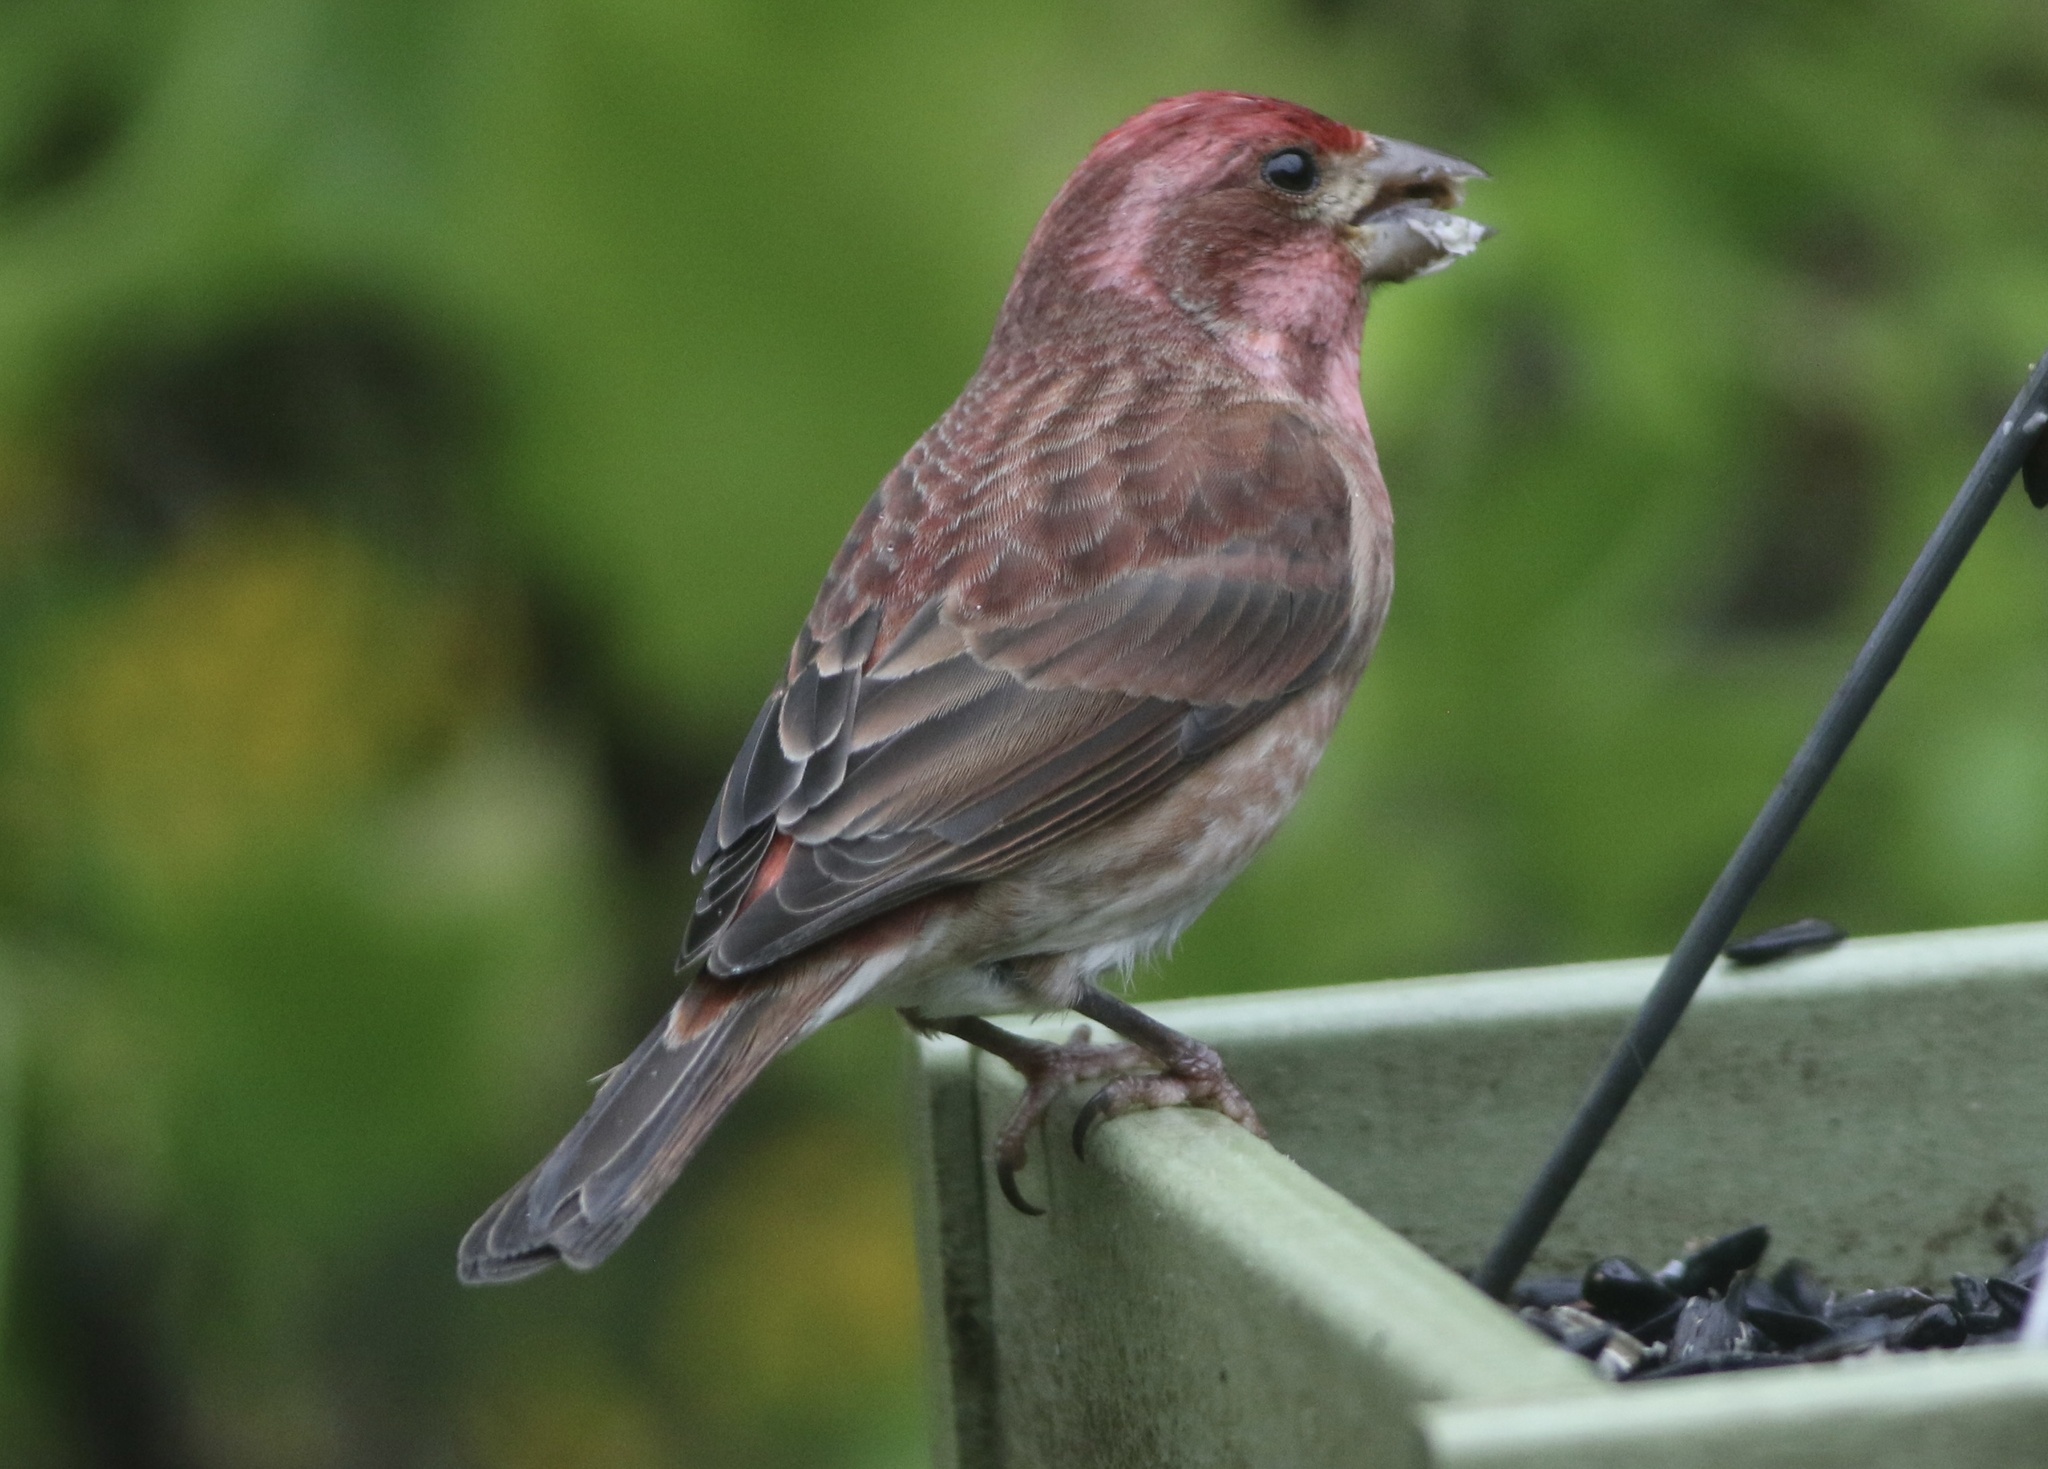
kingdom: Animalia
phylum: Chordata
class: Aves
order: Passeriformes
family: Fringillidae
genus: Haemorhous
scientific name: Haemorhous purpureus
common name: Purple finch
